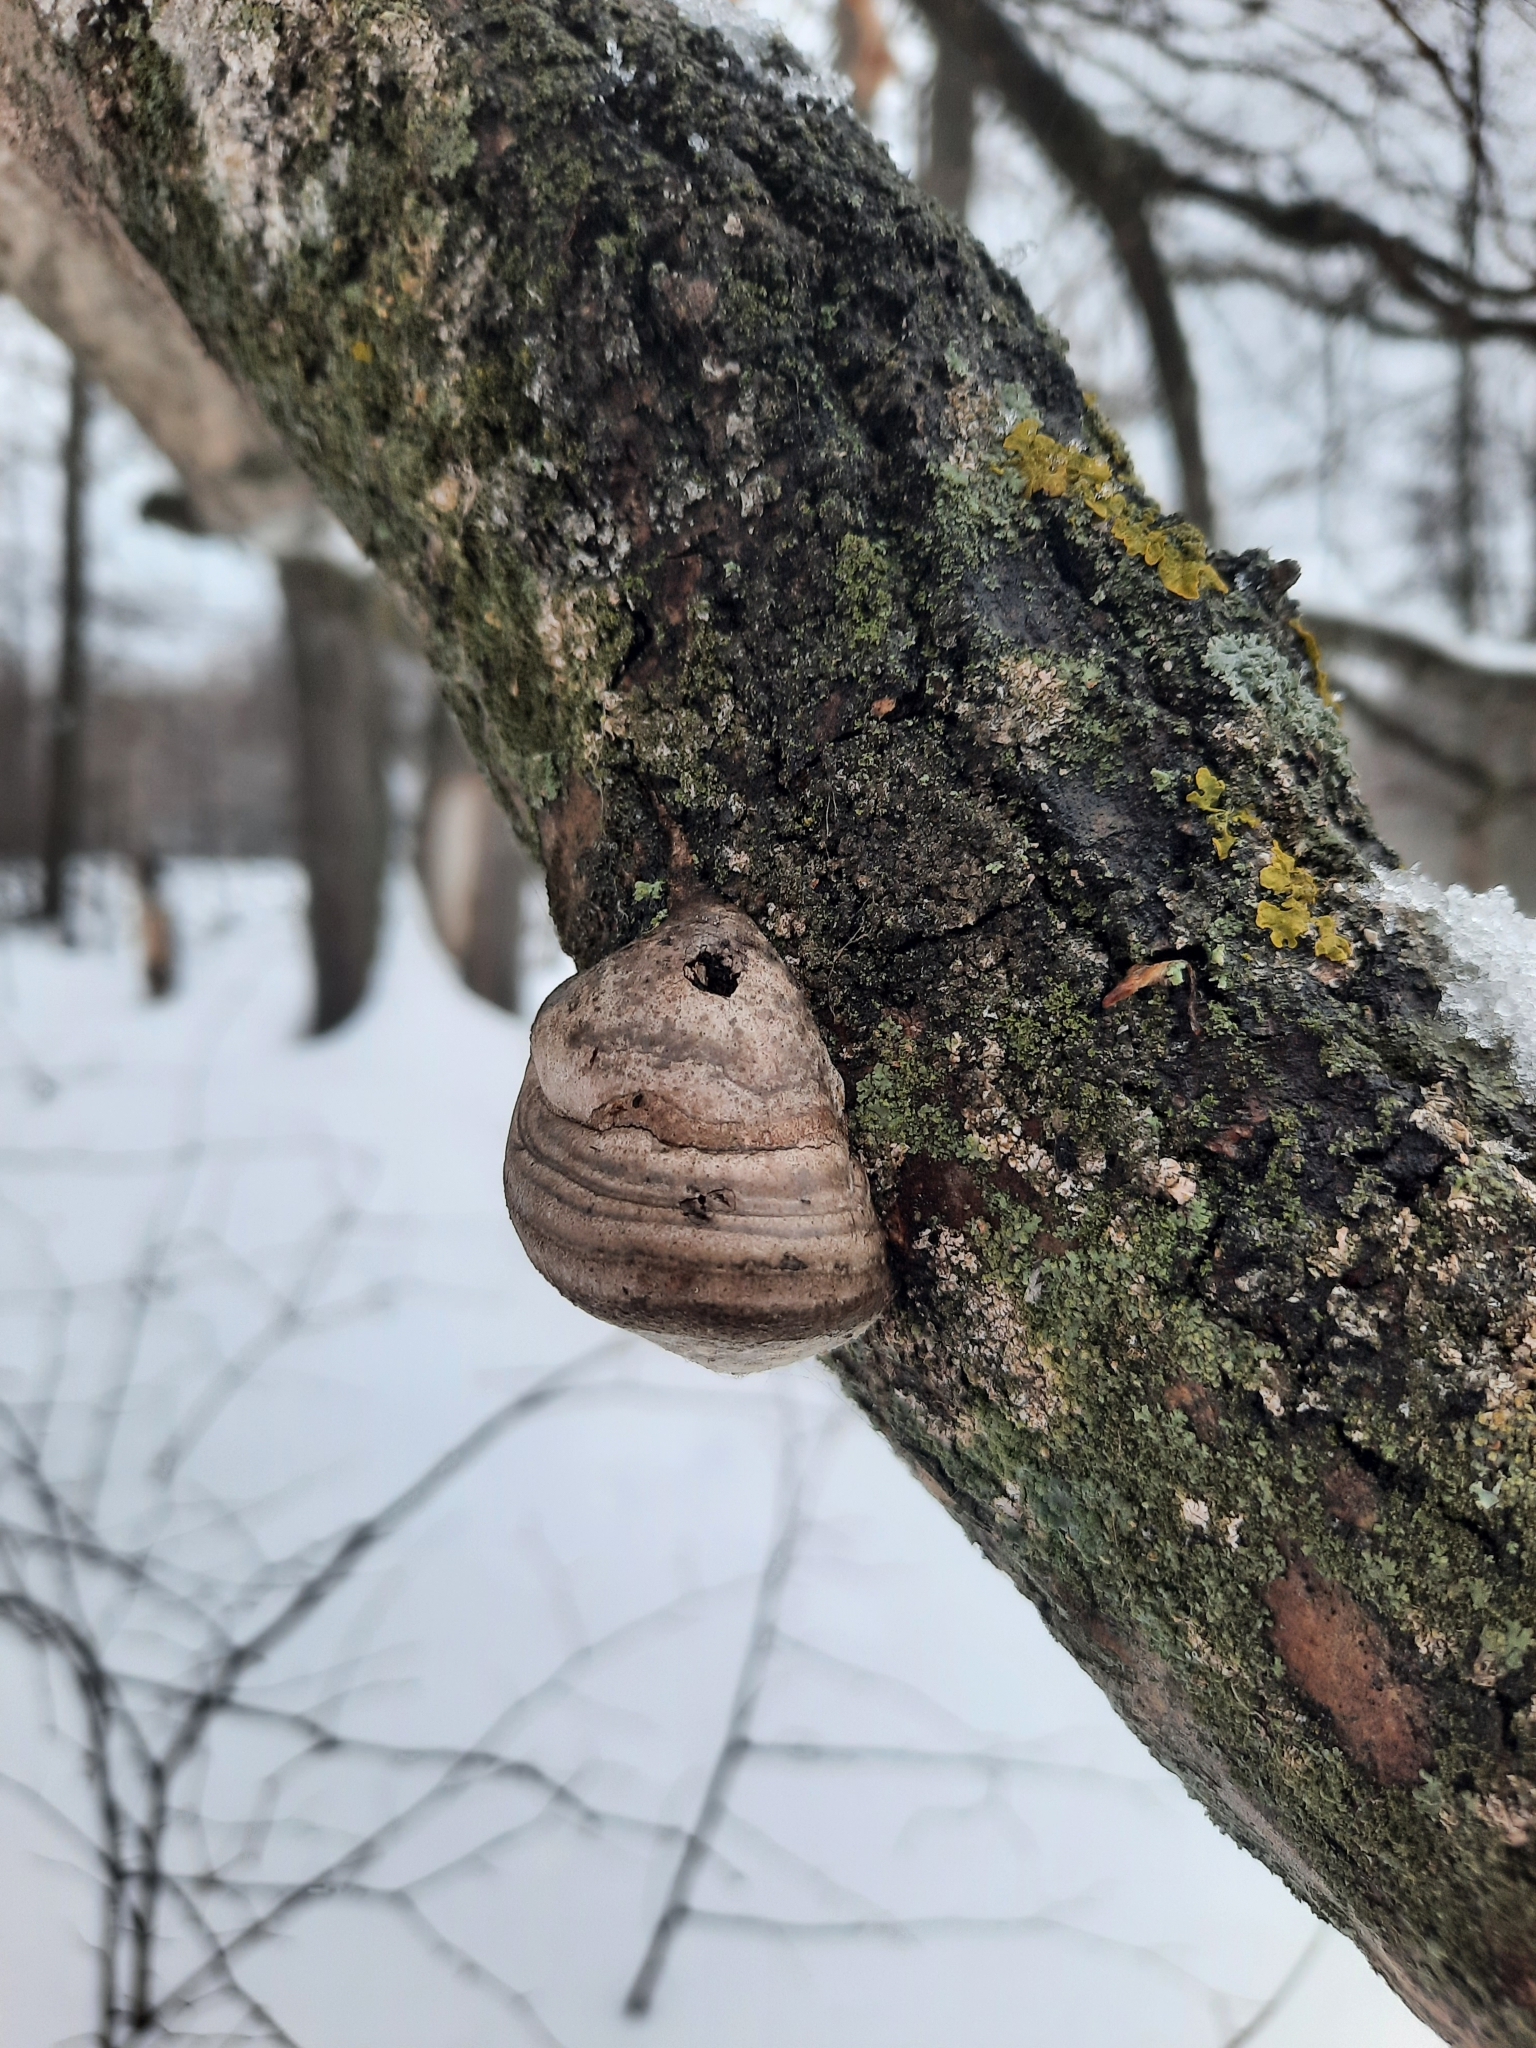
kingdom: Fungi
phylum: Basidiomycota
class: Agaricomycetes
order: Polyporales
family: Polyporaceae
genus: Fomes
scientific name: Fomes fomentarius
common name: Hoof fungus
